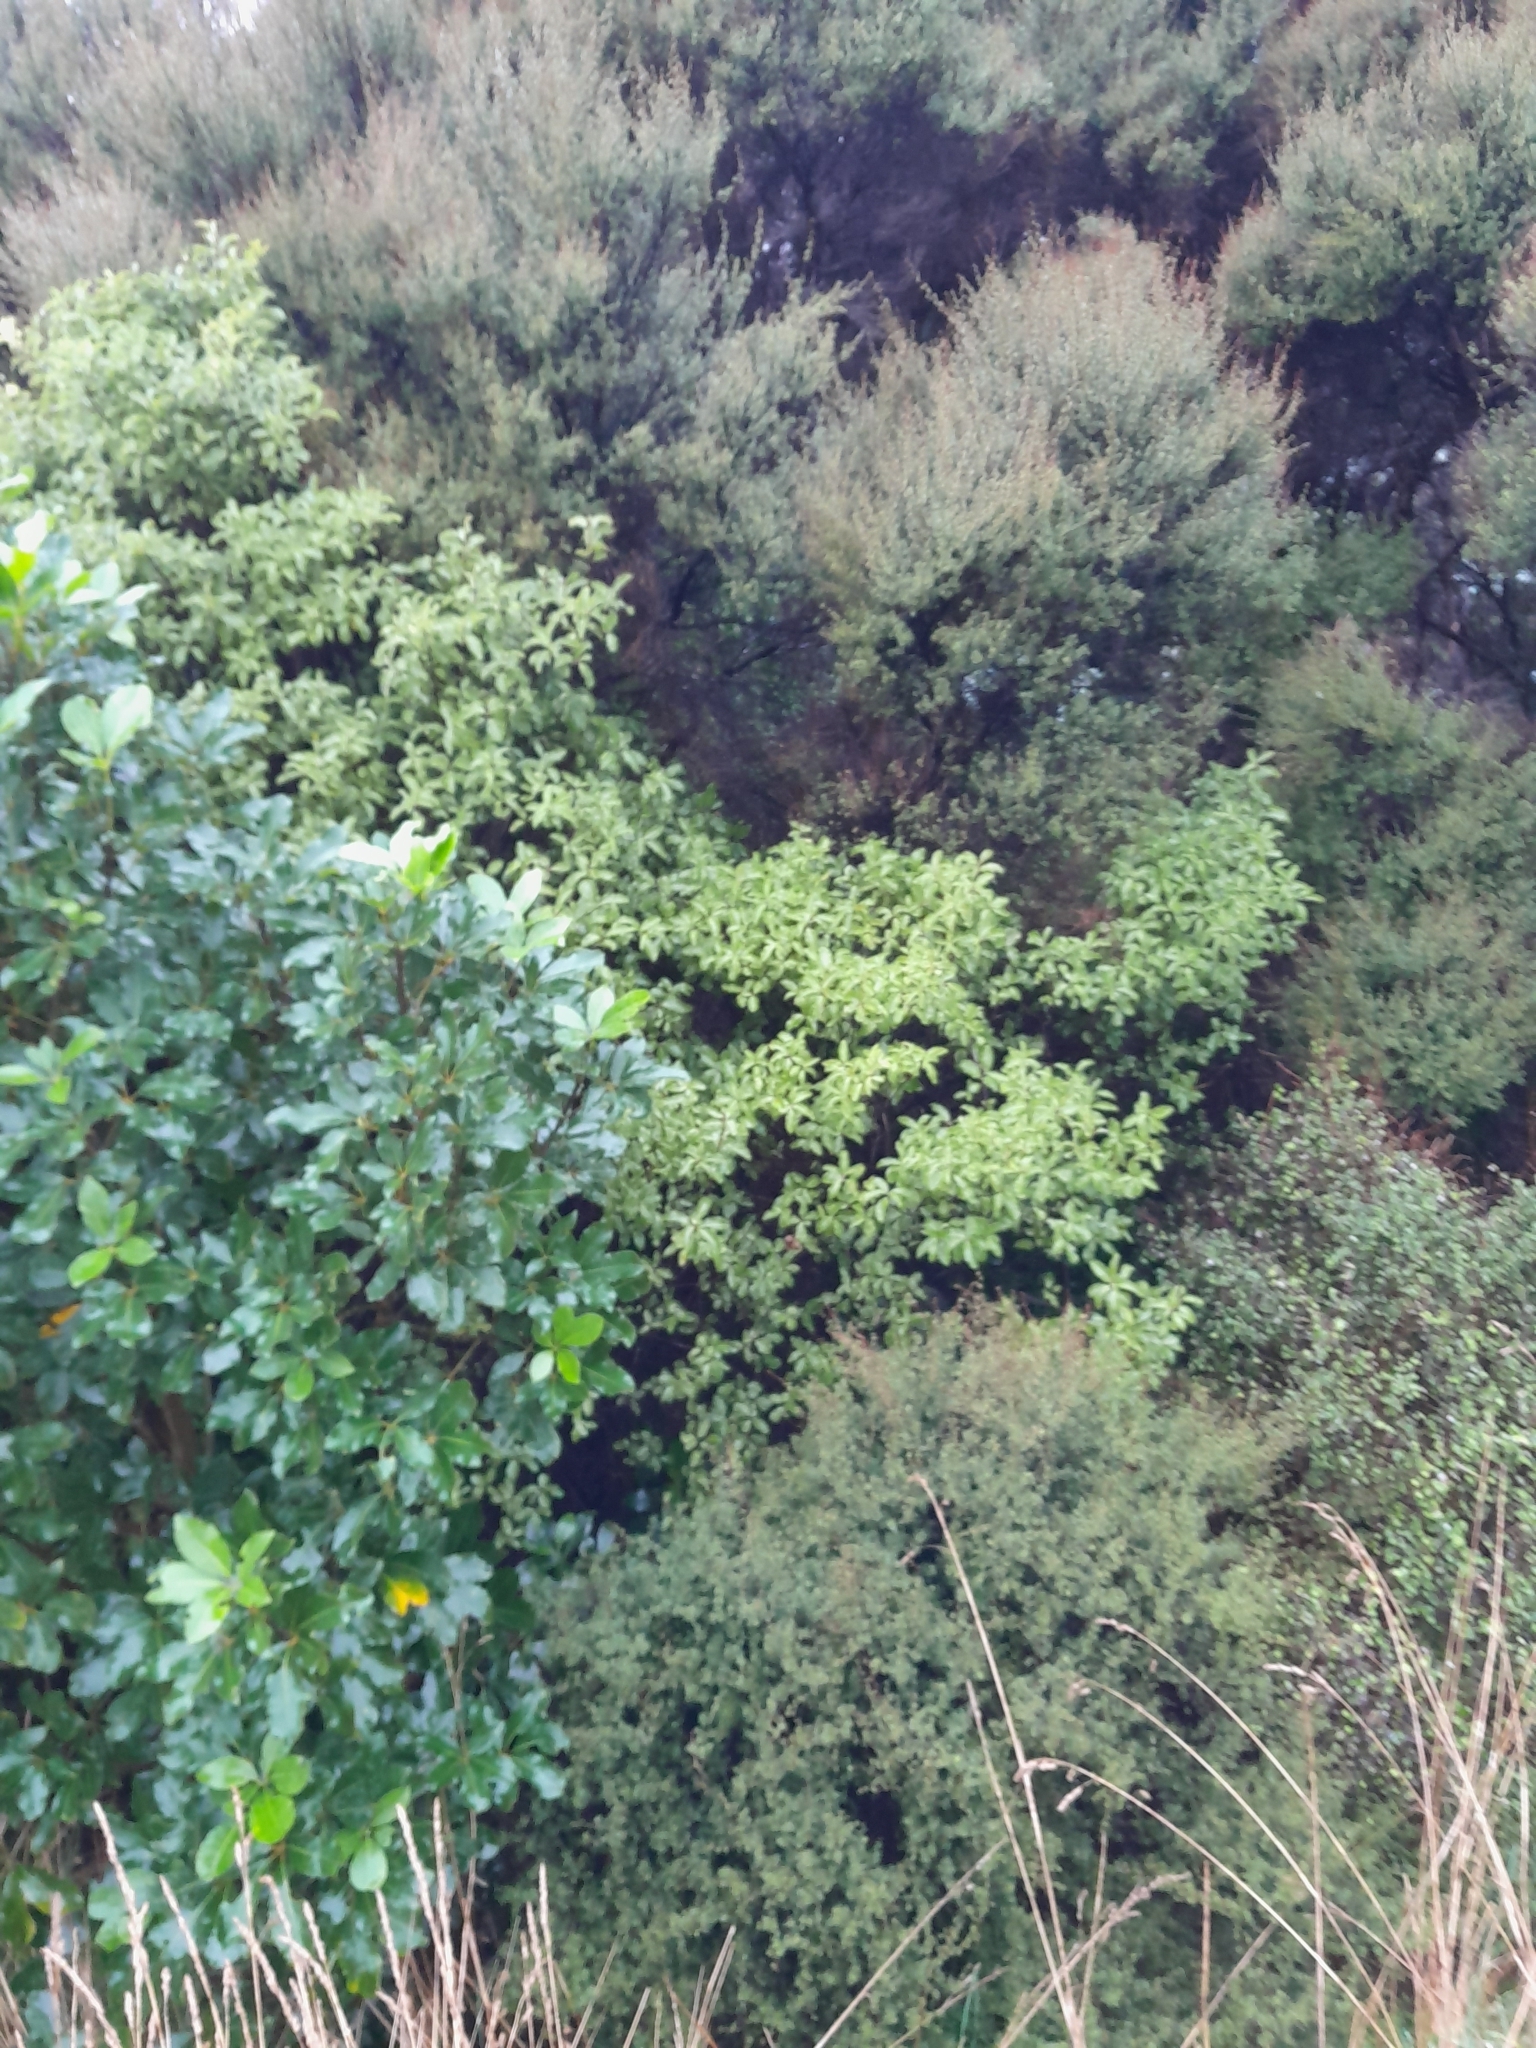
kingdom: Plantae
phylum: Tracheophyta
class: Magnoliopsida
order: Apiales
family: Pittosporaceae
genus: Pittosporum
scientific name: Pittosporum tenuifolium
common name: Kohuhu
